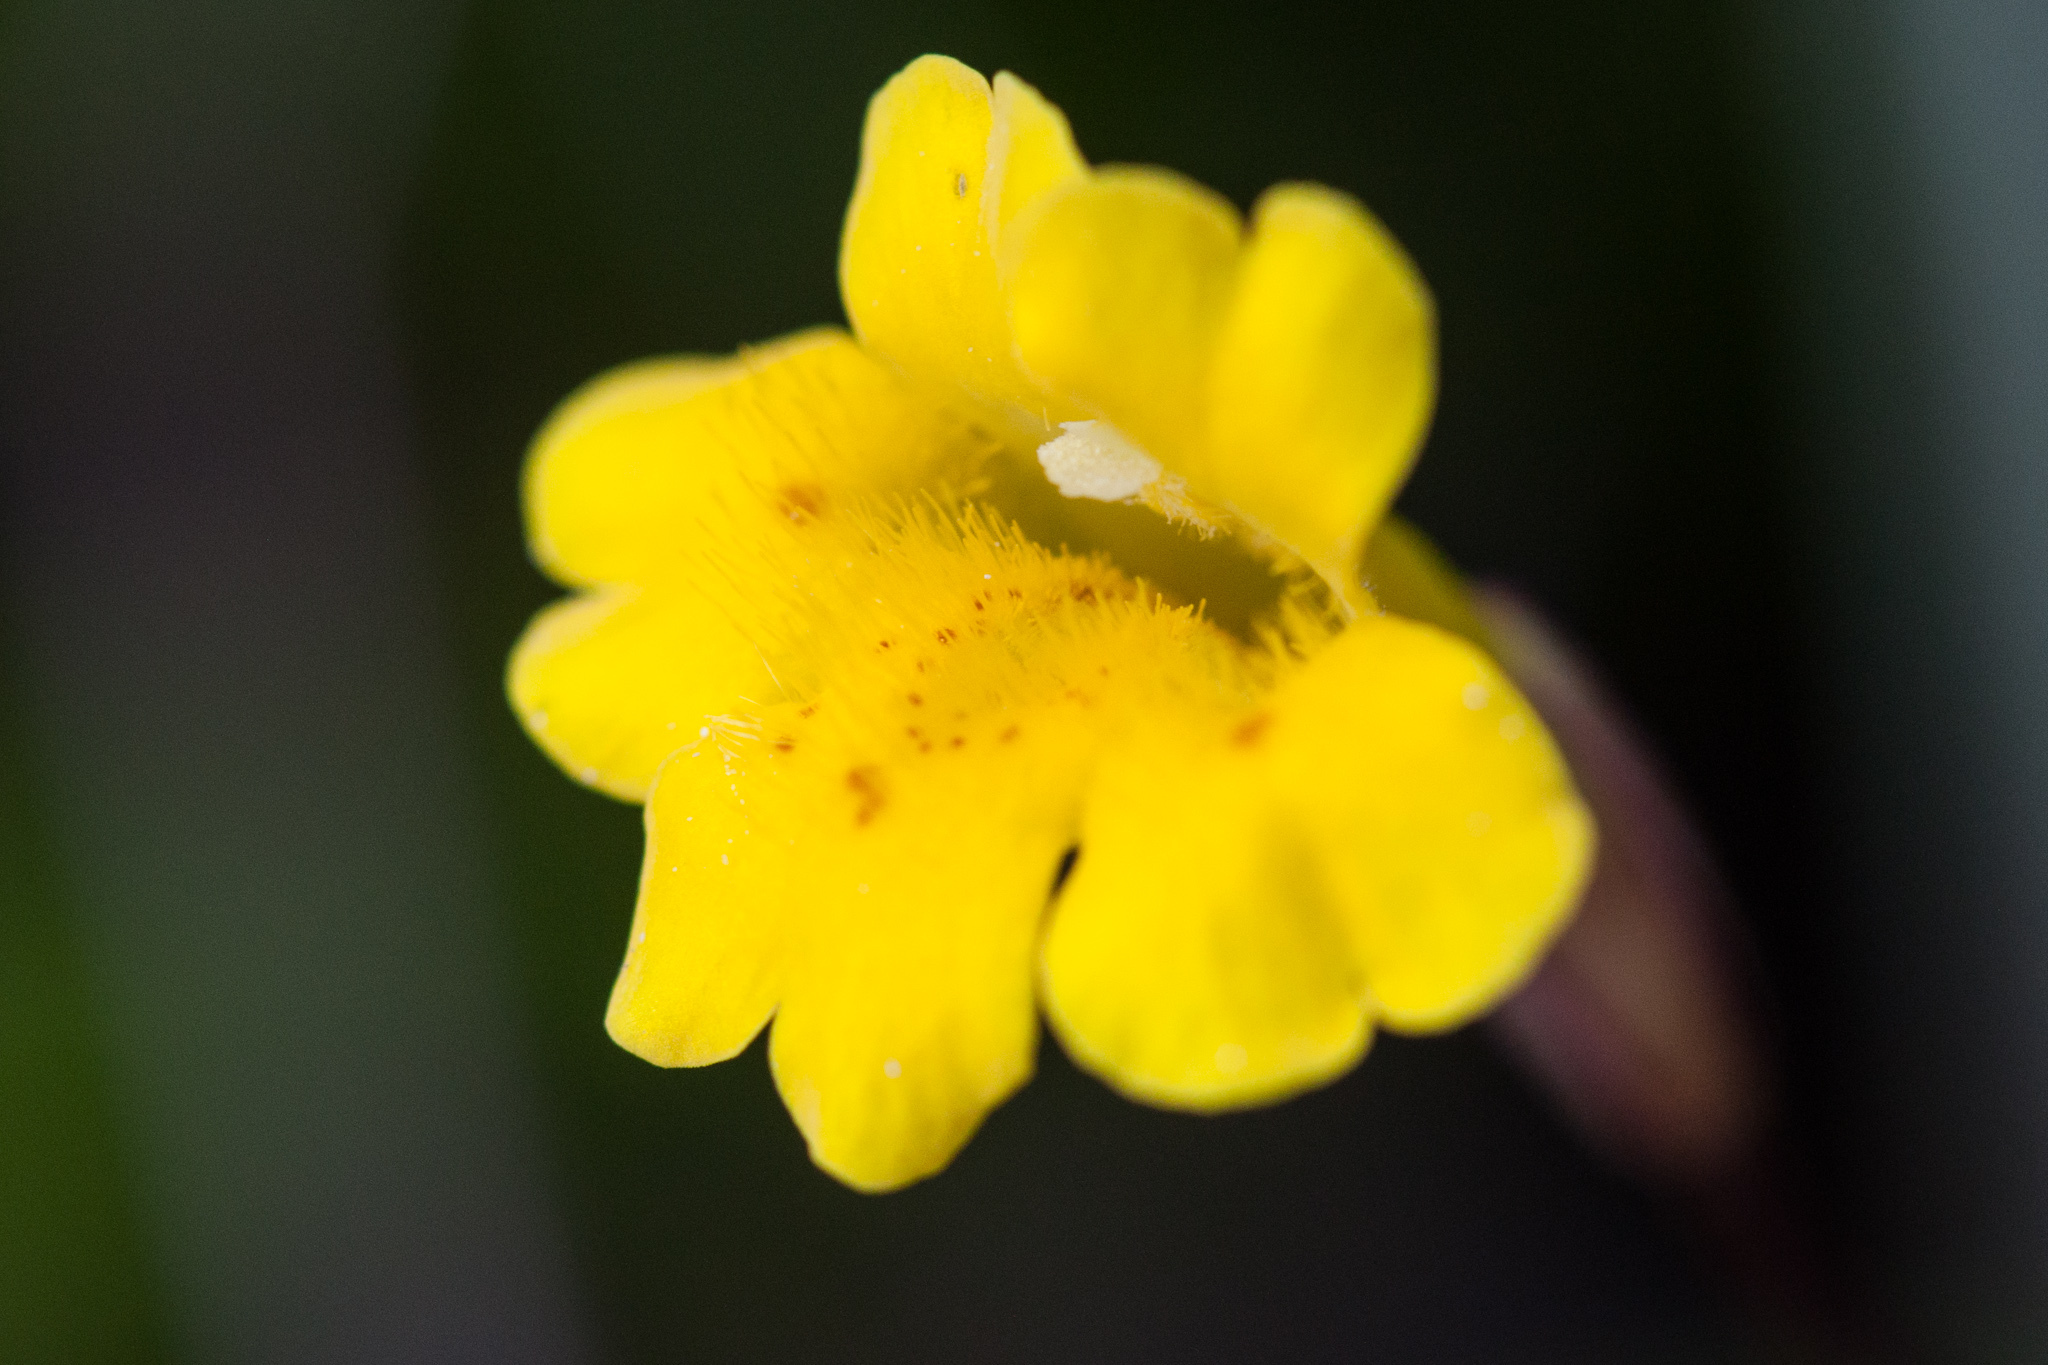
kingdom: Plantae
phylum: Tracheophyta
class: Magnoliopsida
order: Lamiales
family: Phrymaceae
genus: Erythranthe
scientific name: Erythranthe primuloides
